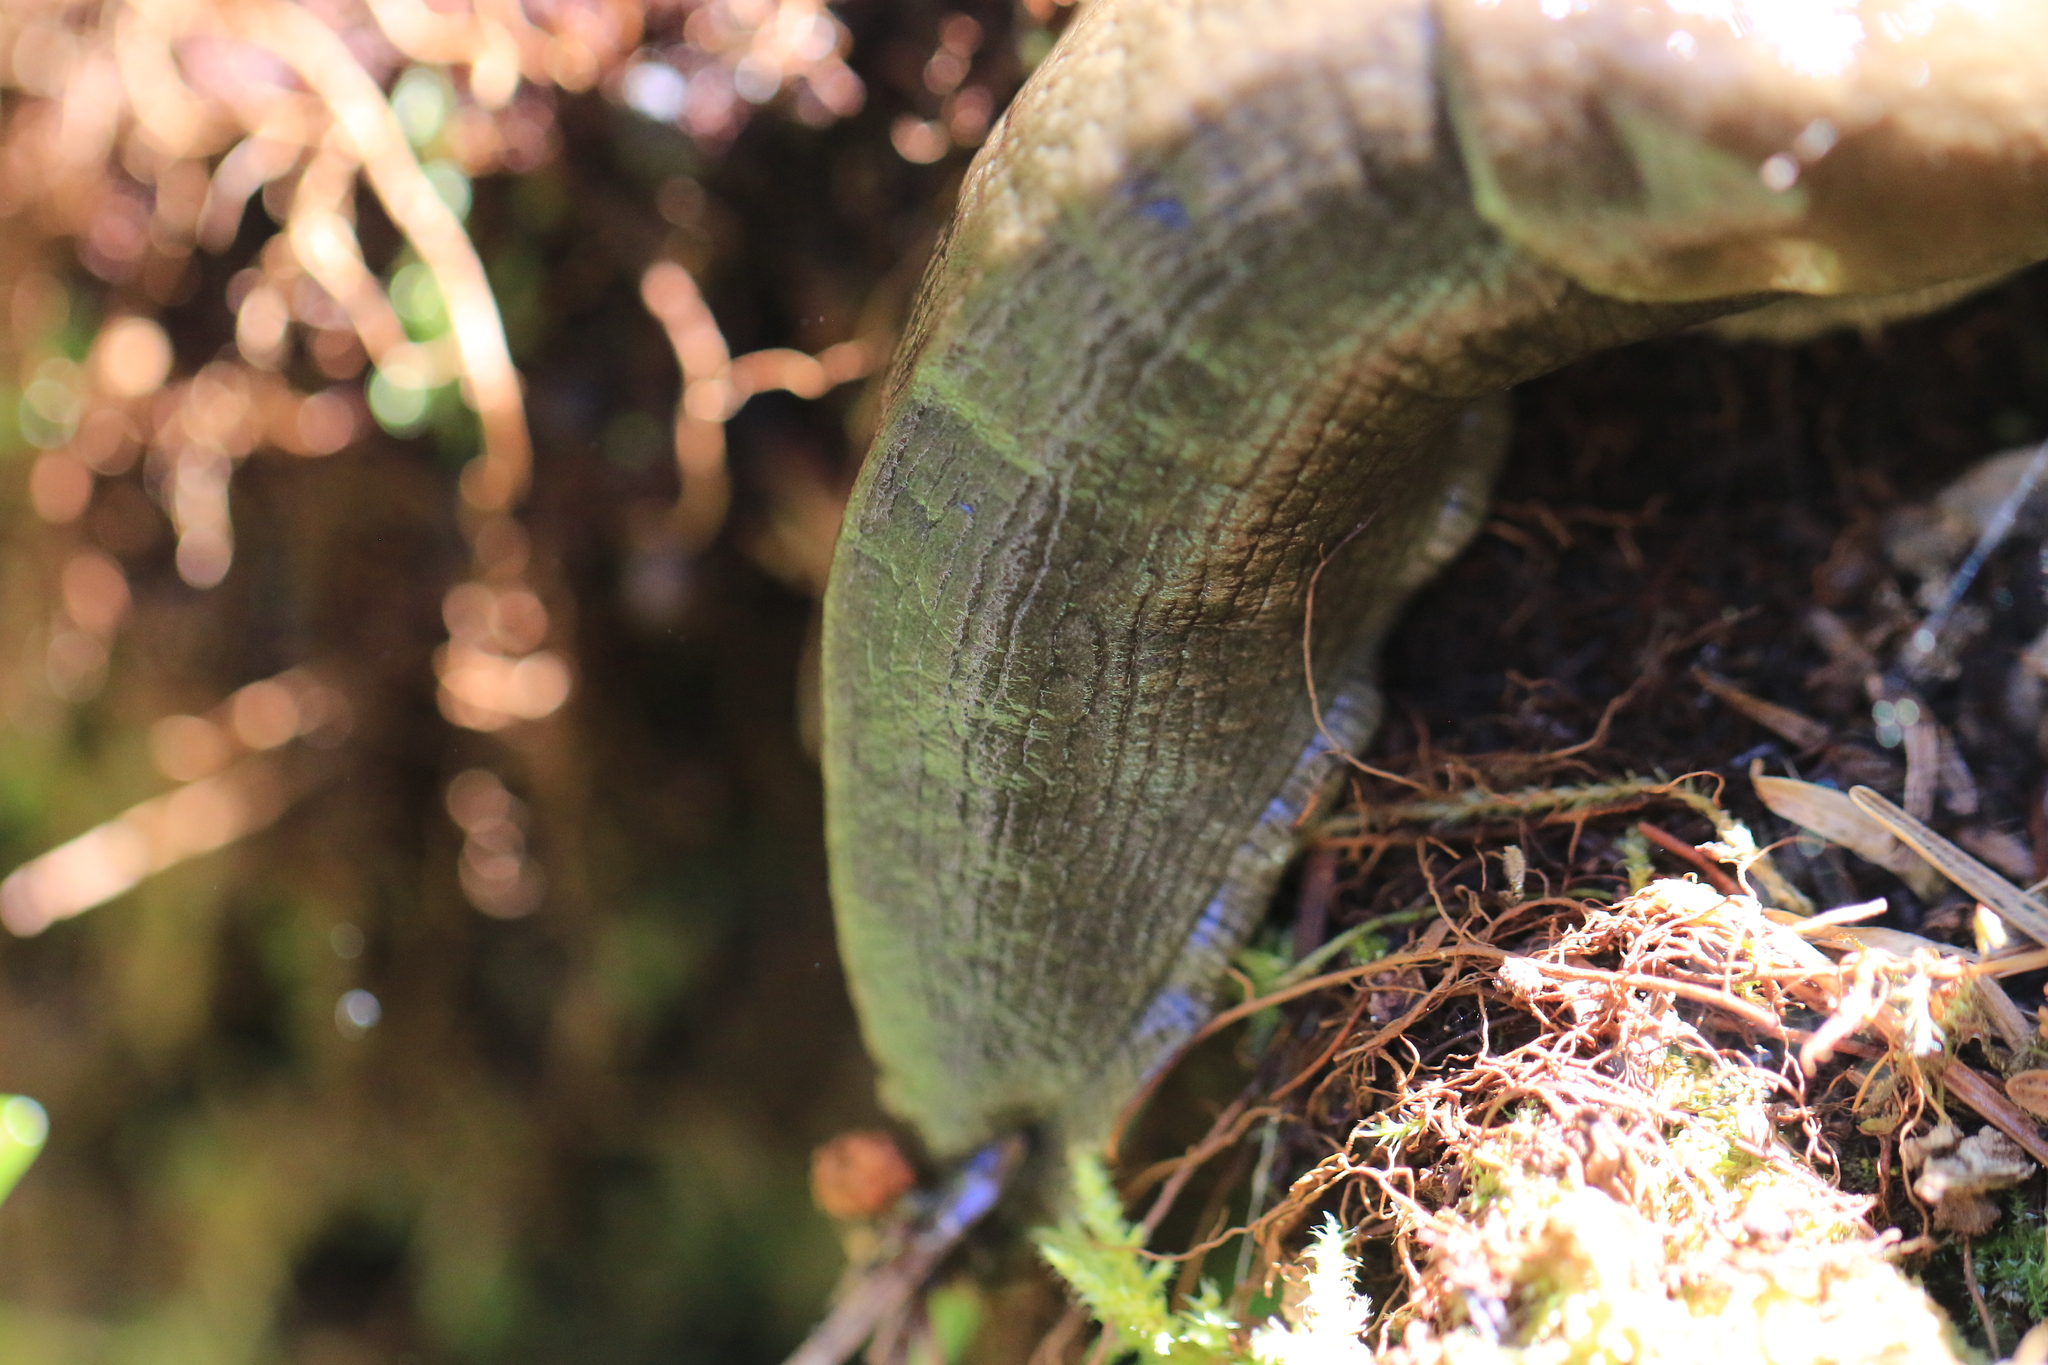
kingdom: Animalia
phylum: Mollusca
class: Gastropoda
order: Stylommatophora
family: Ariolimacidae
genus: Ariolimax
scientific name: Ariolimax columbianus
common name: Pacific banana slug
